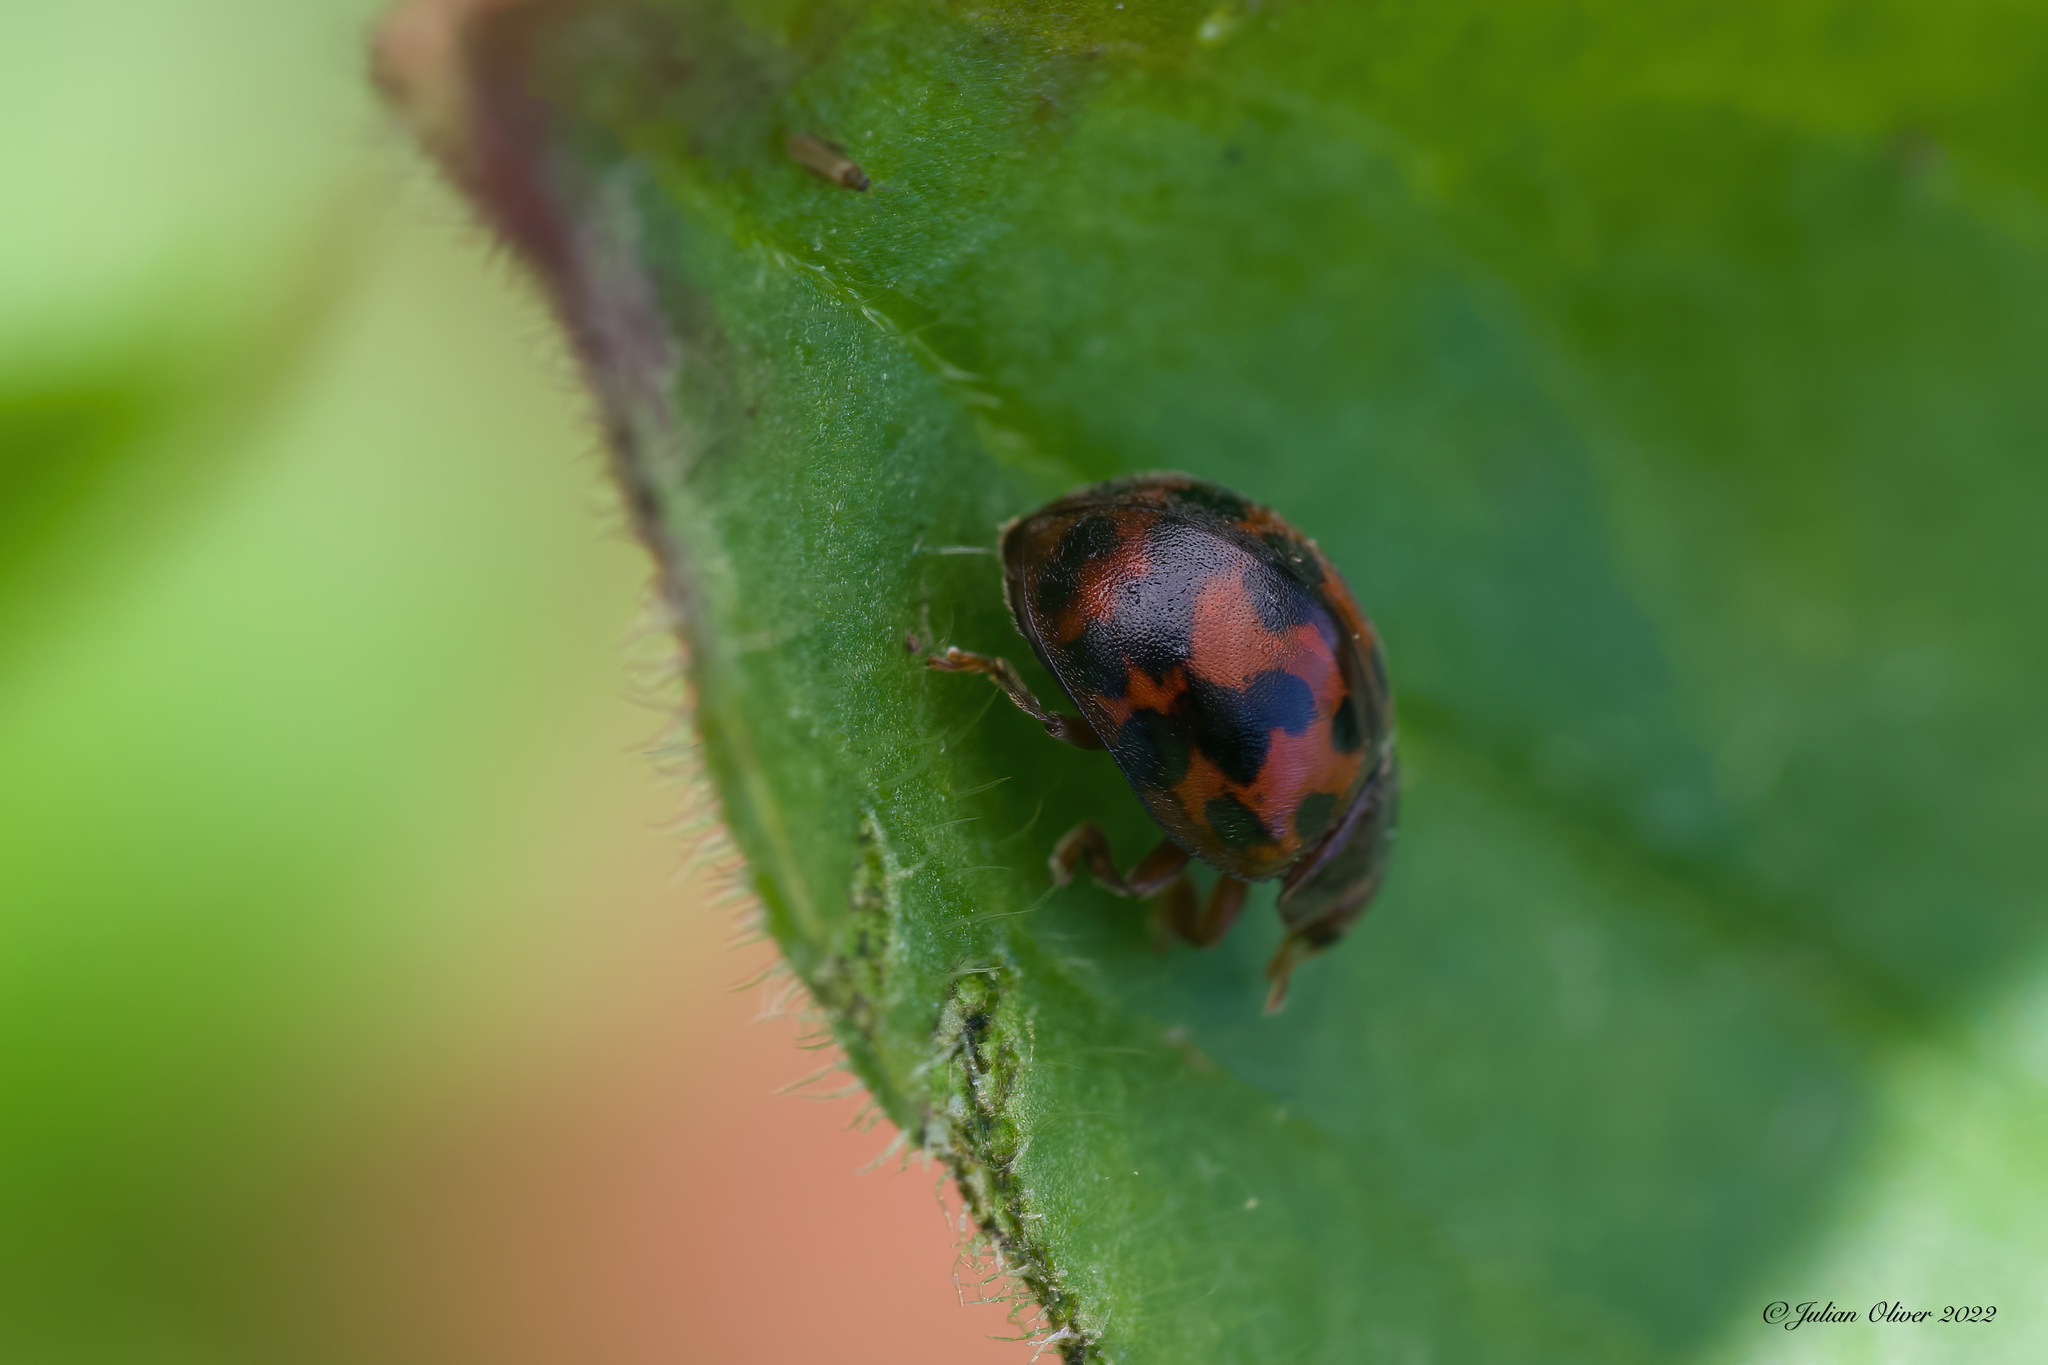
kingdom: Animalia
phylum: Arthropoda
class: Insecta
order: Coleoptera
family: Coccinellidae
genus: Subcoccinella
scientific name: Subcoccinella vigintiquatuorpunctata
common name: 24-spot ladybird
